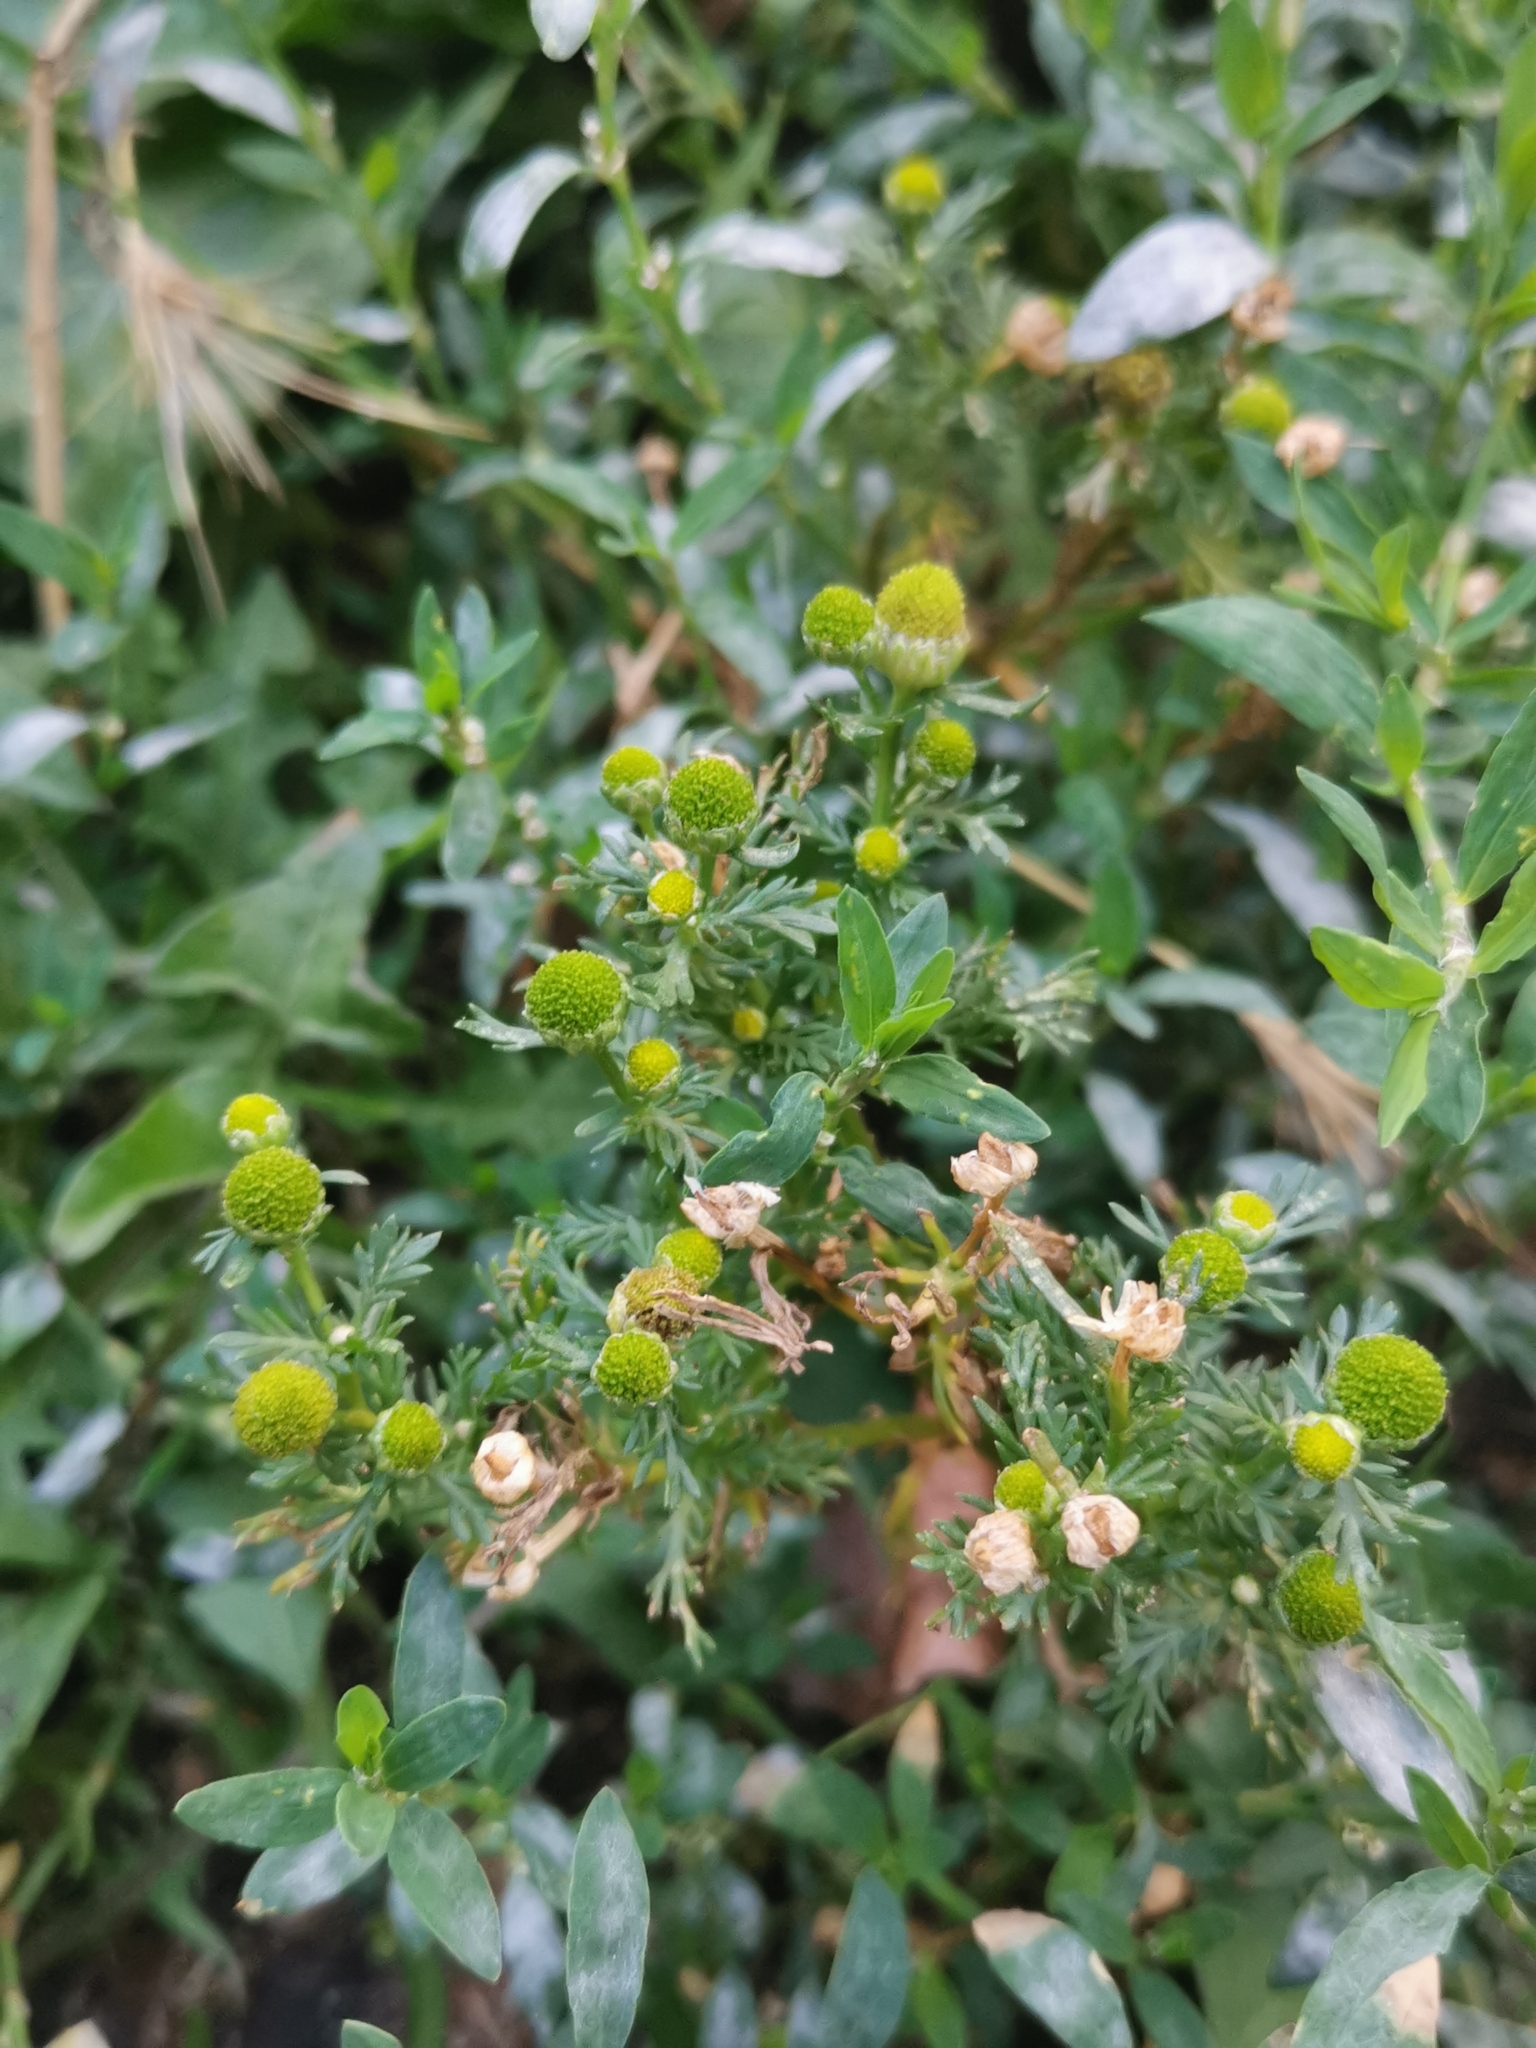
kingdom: Plantae
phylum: Tracheophyta
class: Magnoliopsida
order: Asterales
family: Asteraceae
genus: Matricaria
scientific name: Matricaria discoidea
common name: Disc mayweed
